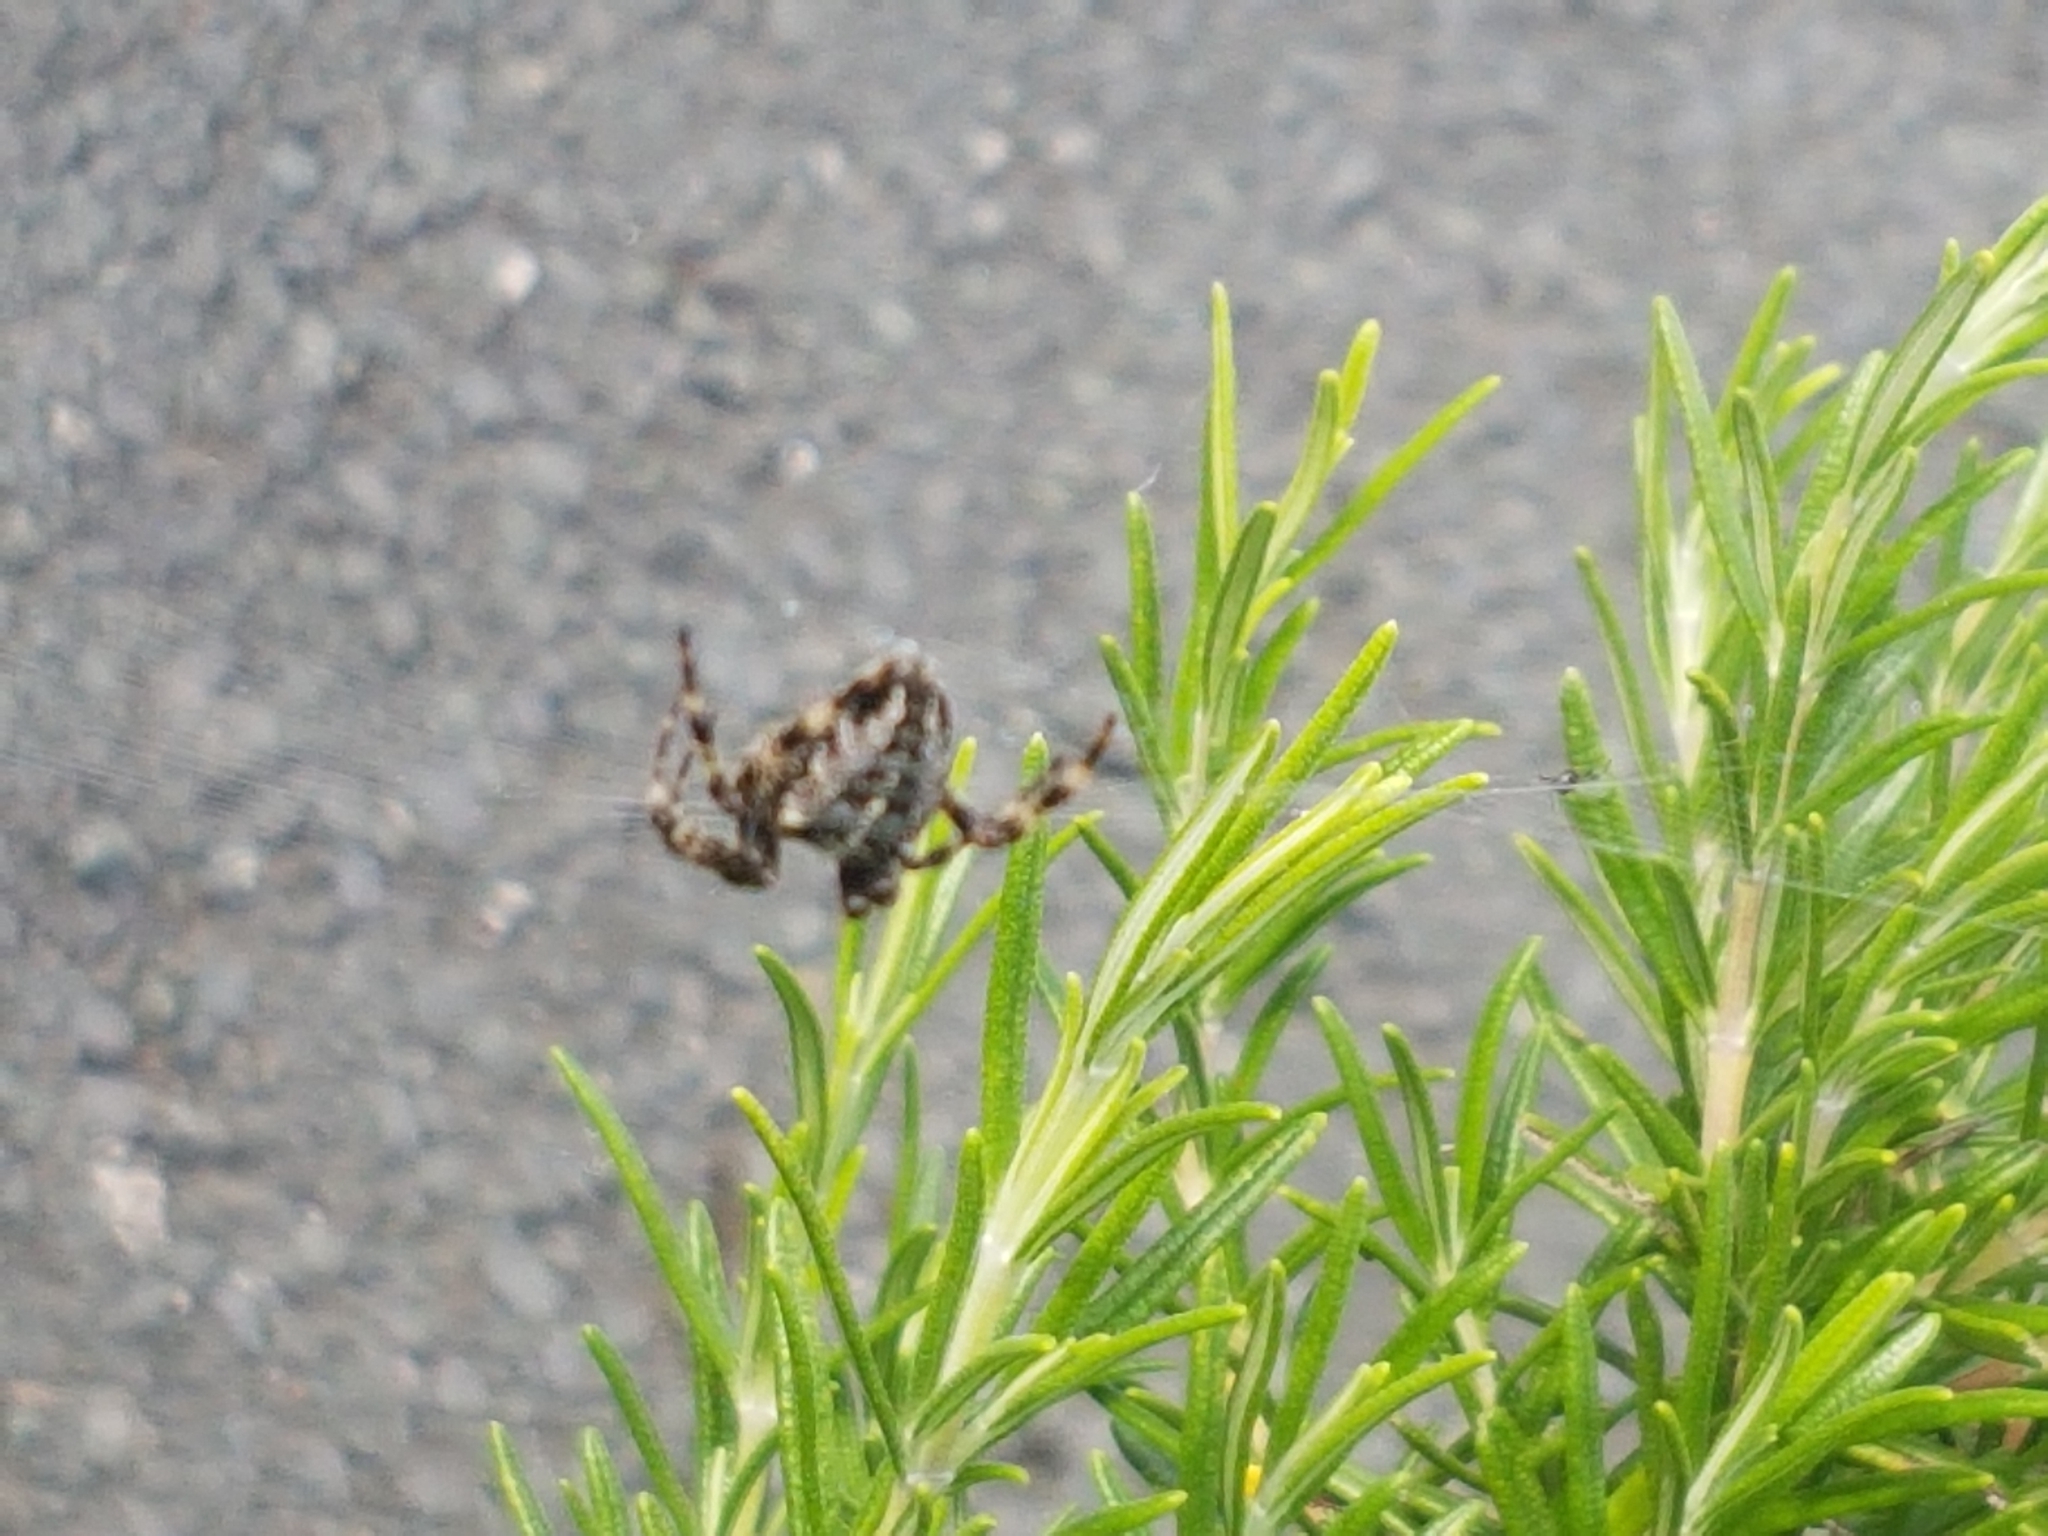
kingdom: Animalia
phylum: Arthropoda
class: Arachnida
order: Araneae
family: Araneidae
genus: Araneus
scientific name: Araneus diadematus
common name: Cross orbweaver
